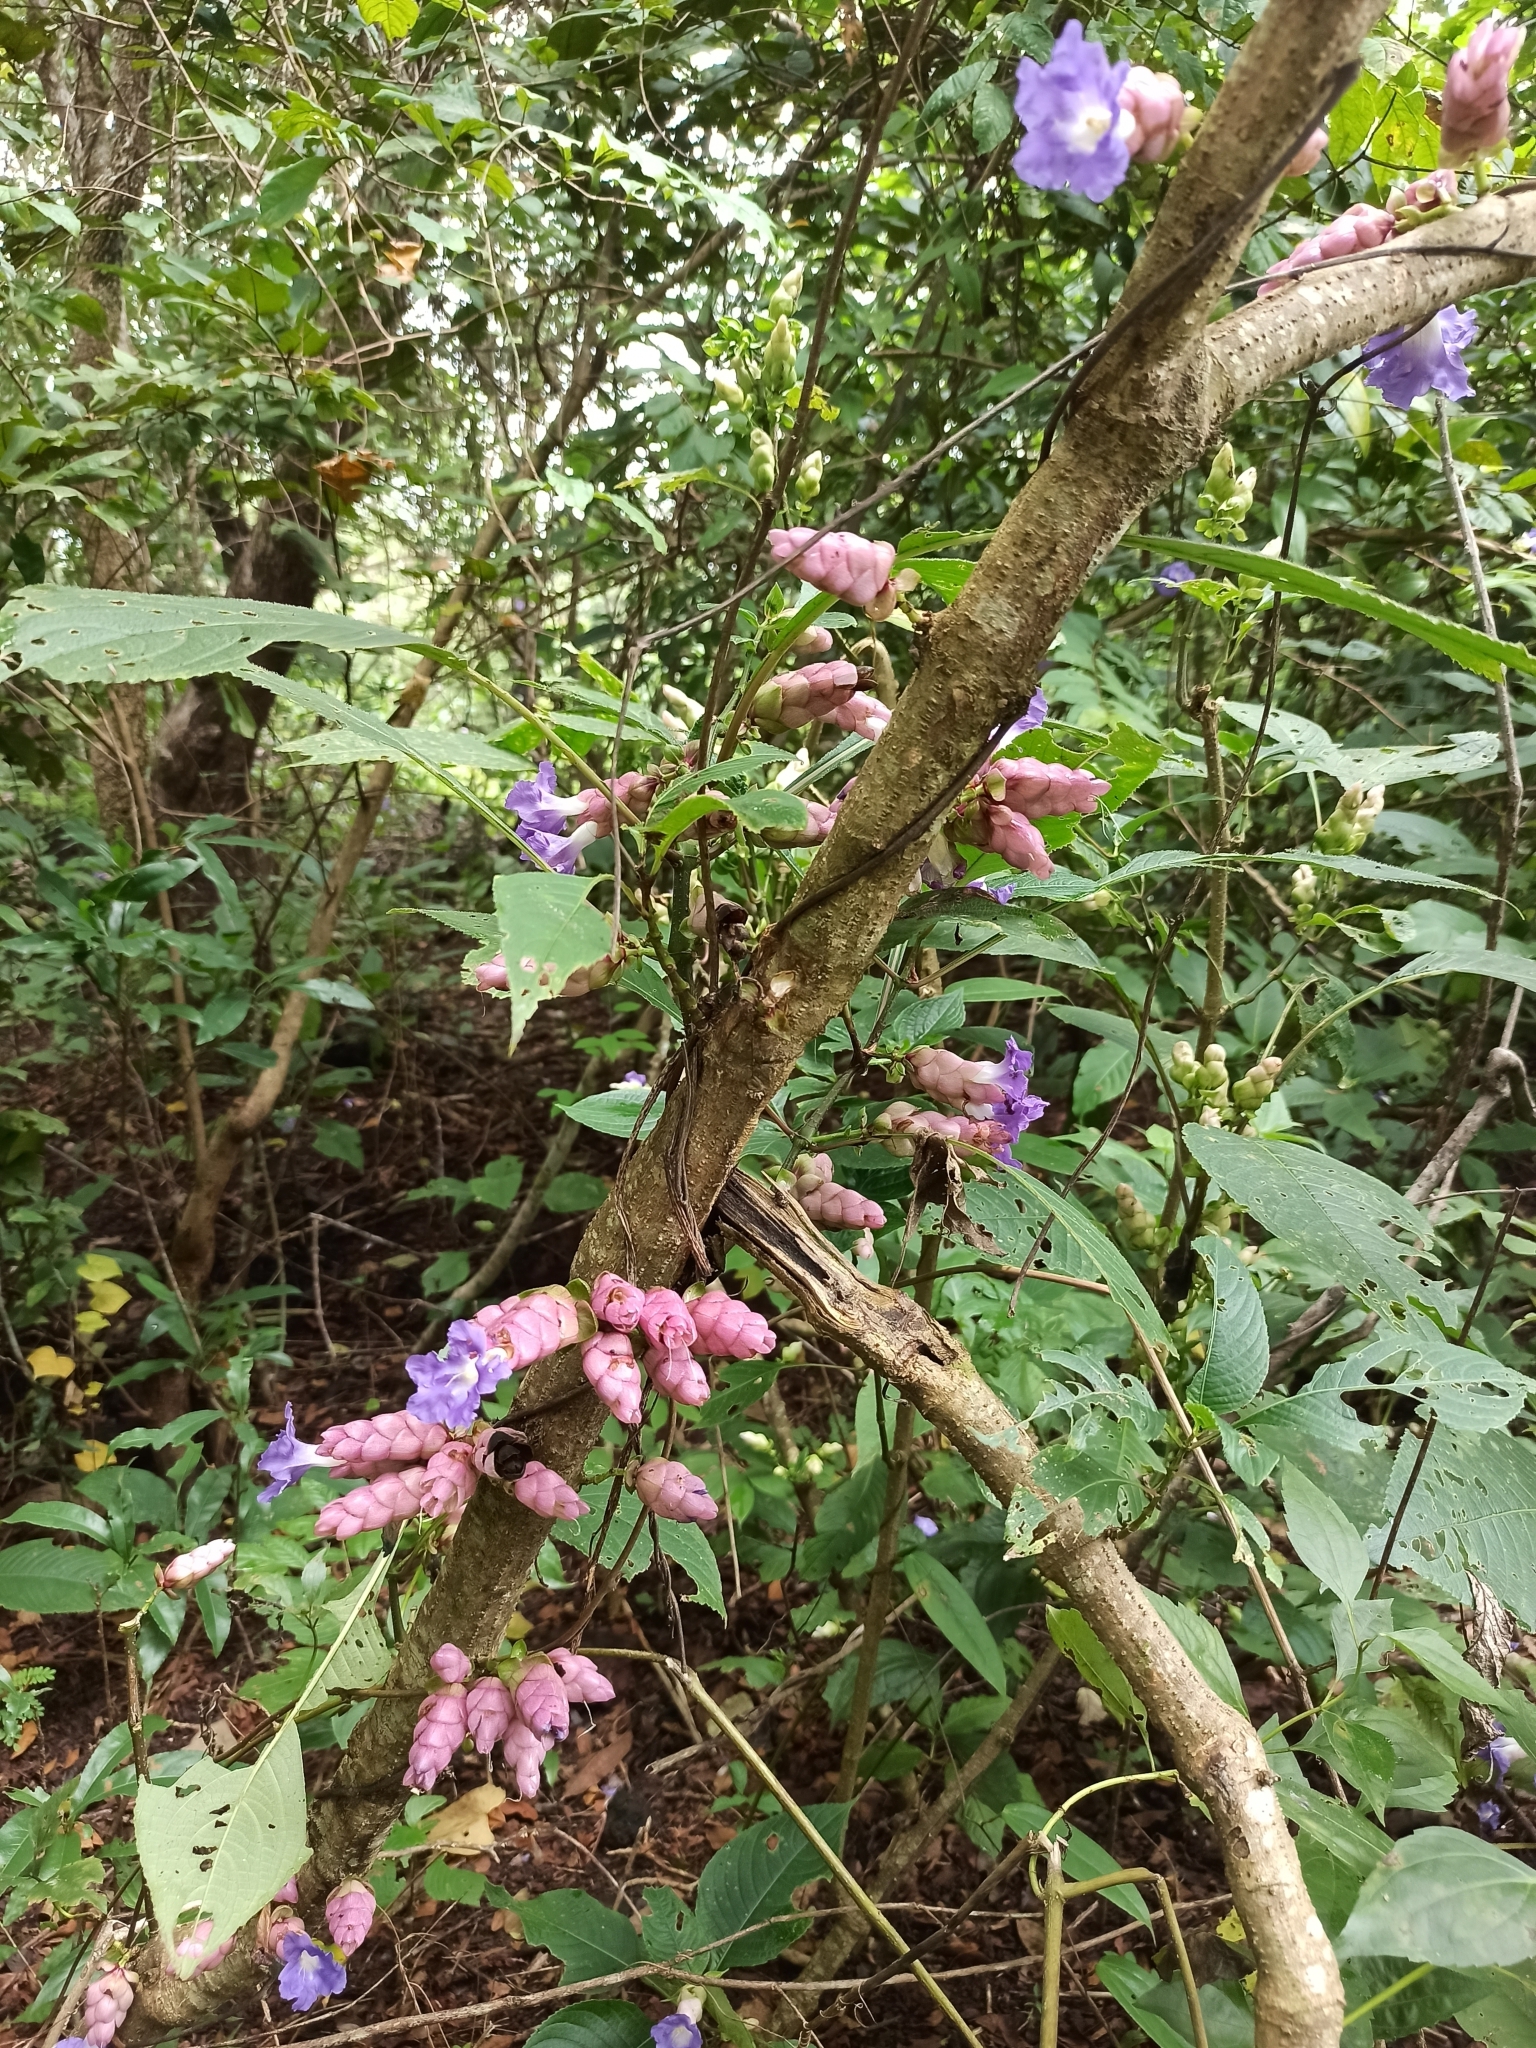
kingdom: Plantae
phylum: Tracheophyta
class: Magnoliopsida
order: Lamiales
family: Acanthaceae
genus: Strobilanthes
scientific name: Strobilanthes callosa
